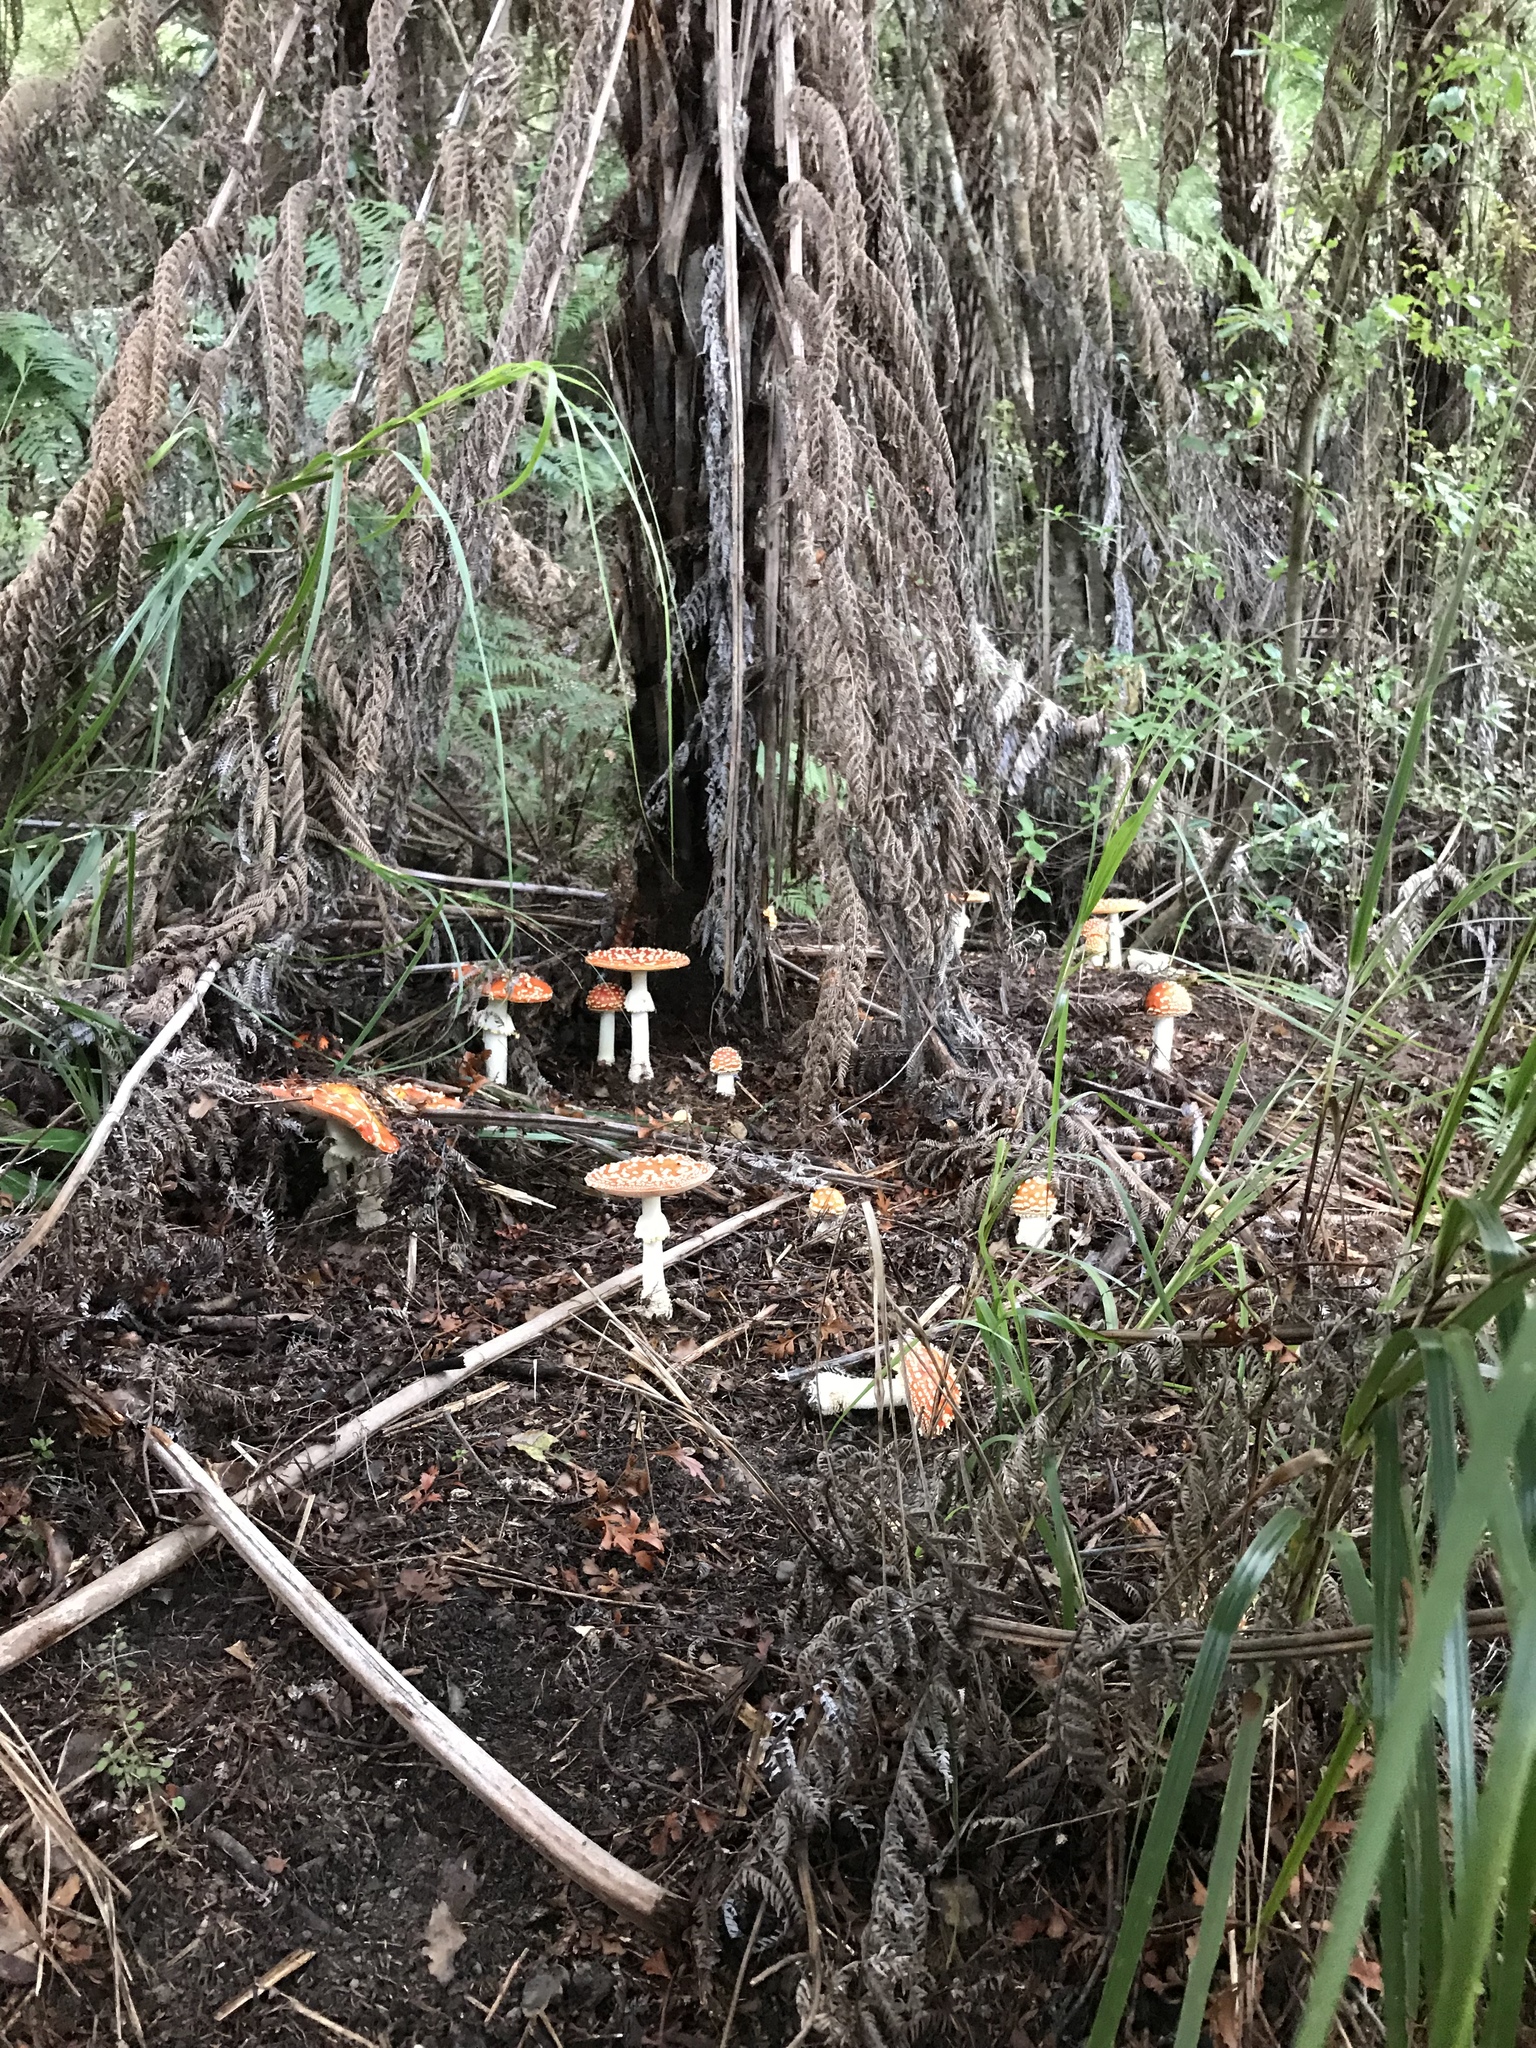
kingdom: Fungi
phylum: Basidiomycota
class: Agaricomycetes
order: Agaricales
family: Amanitaceae
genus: Amanita
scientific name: Amanita muscaria
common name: Fly agaric
